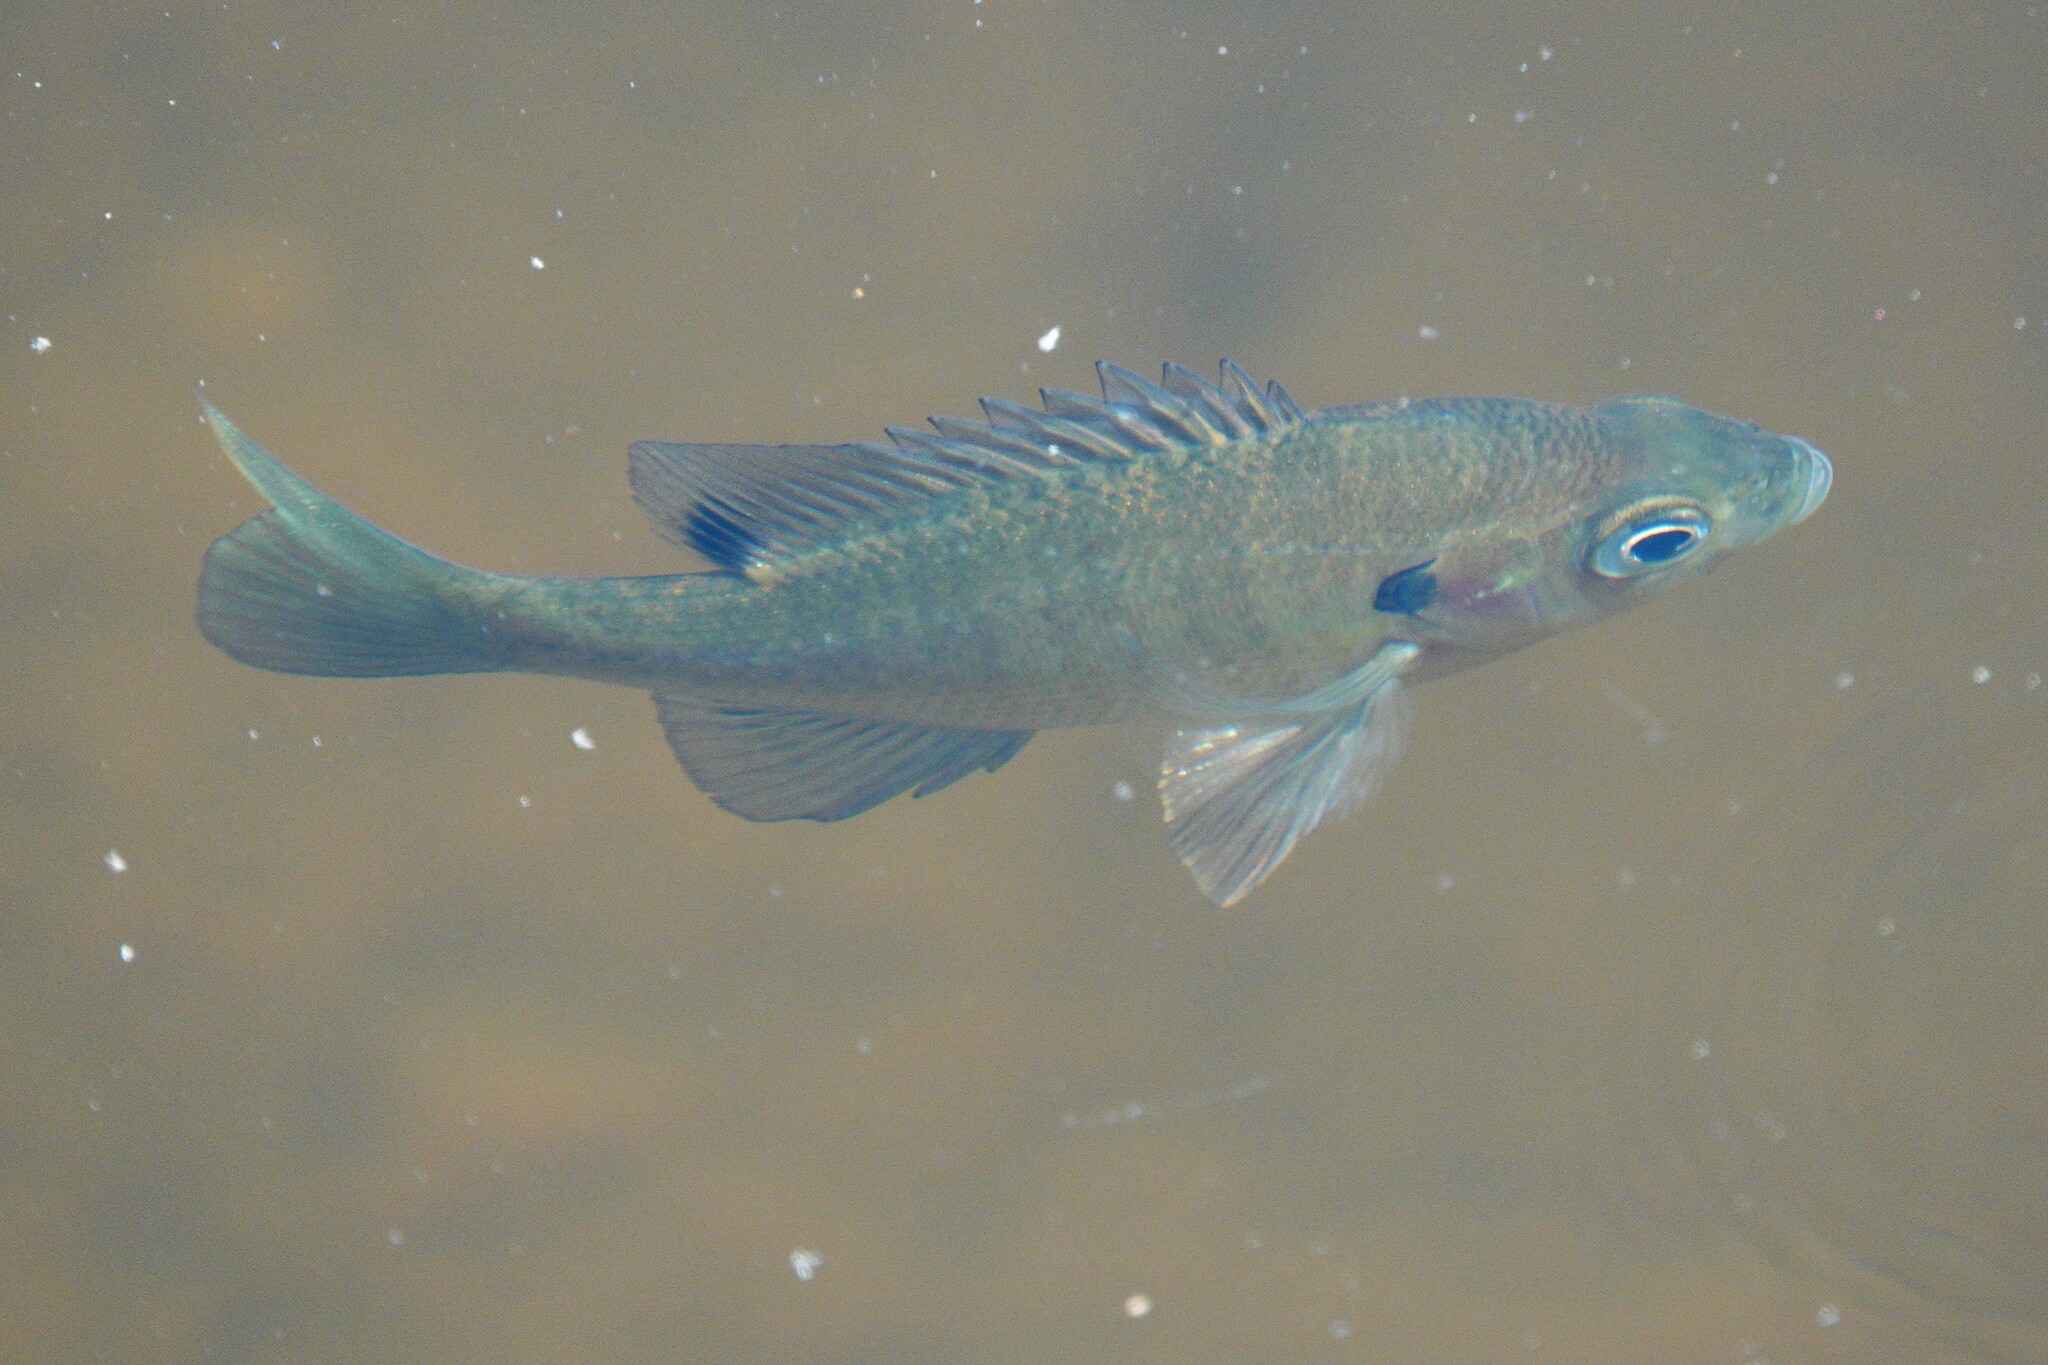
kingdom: Animalia
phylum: Chordata
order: Perciformes
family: Centrarchidae
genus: Lepomis
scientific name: Lepomis macrochirus
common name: Bluegill
